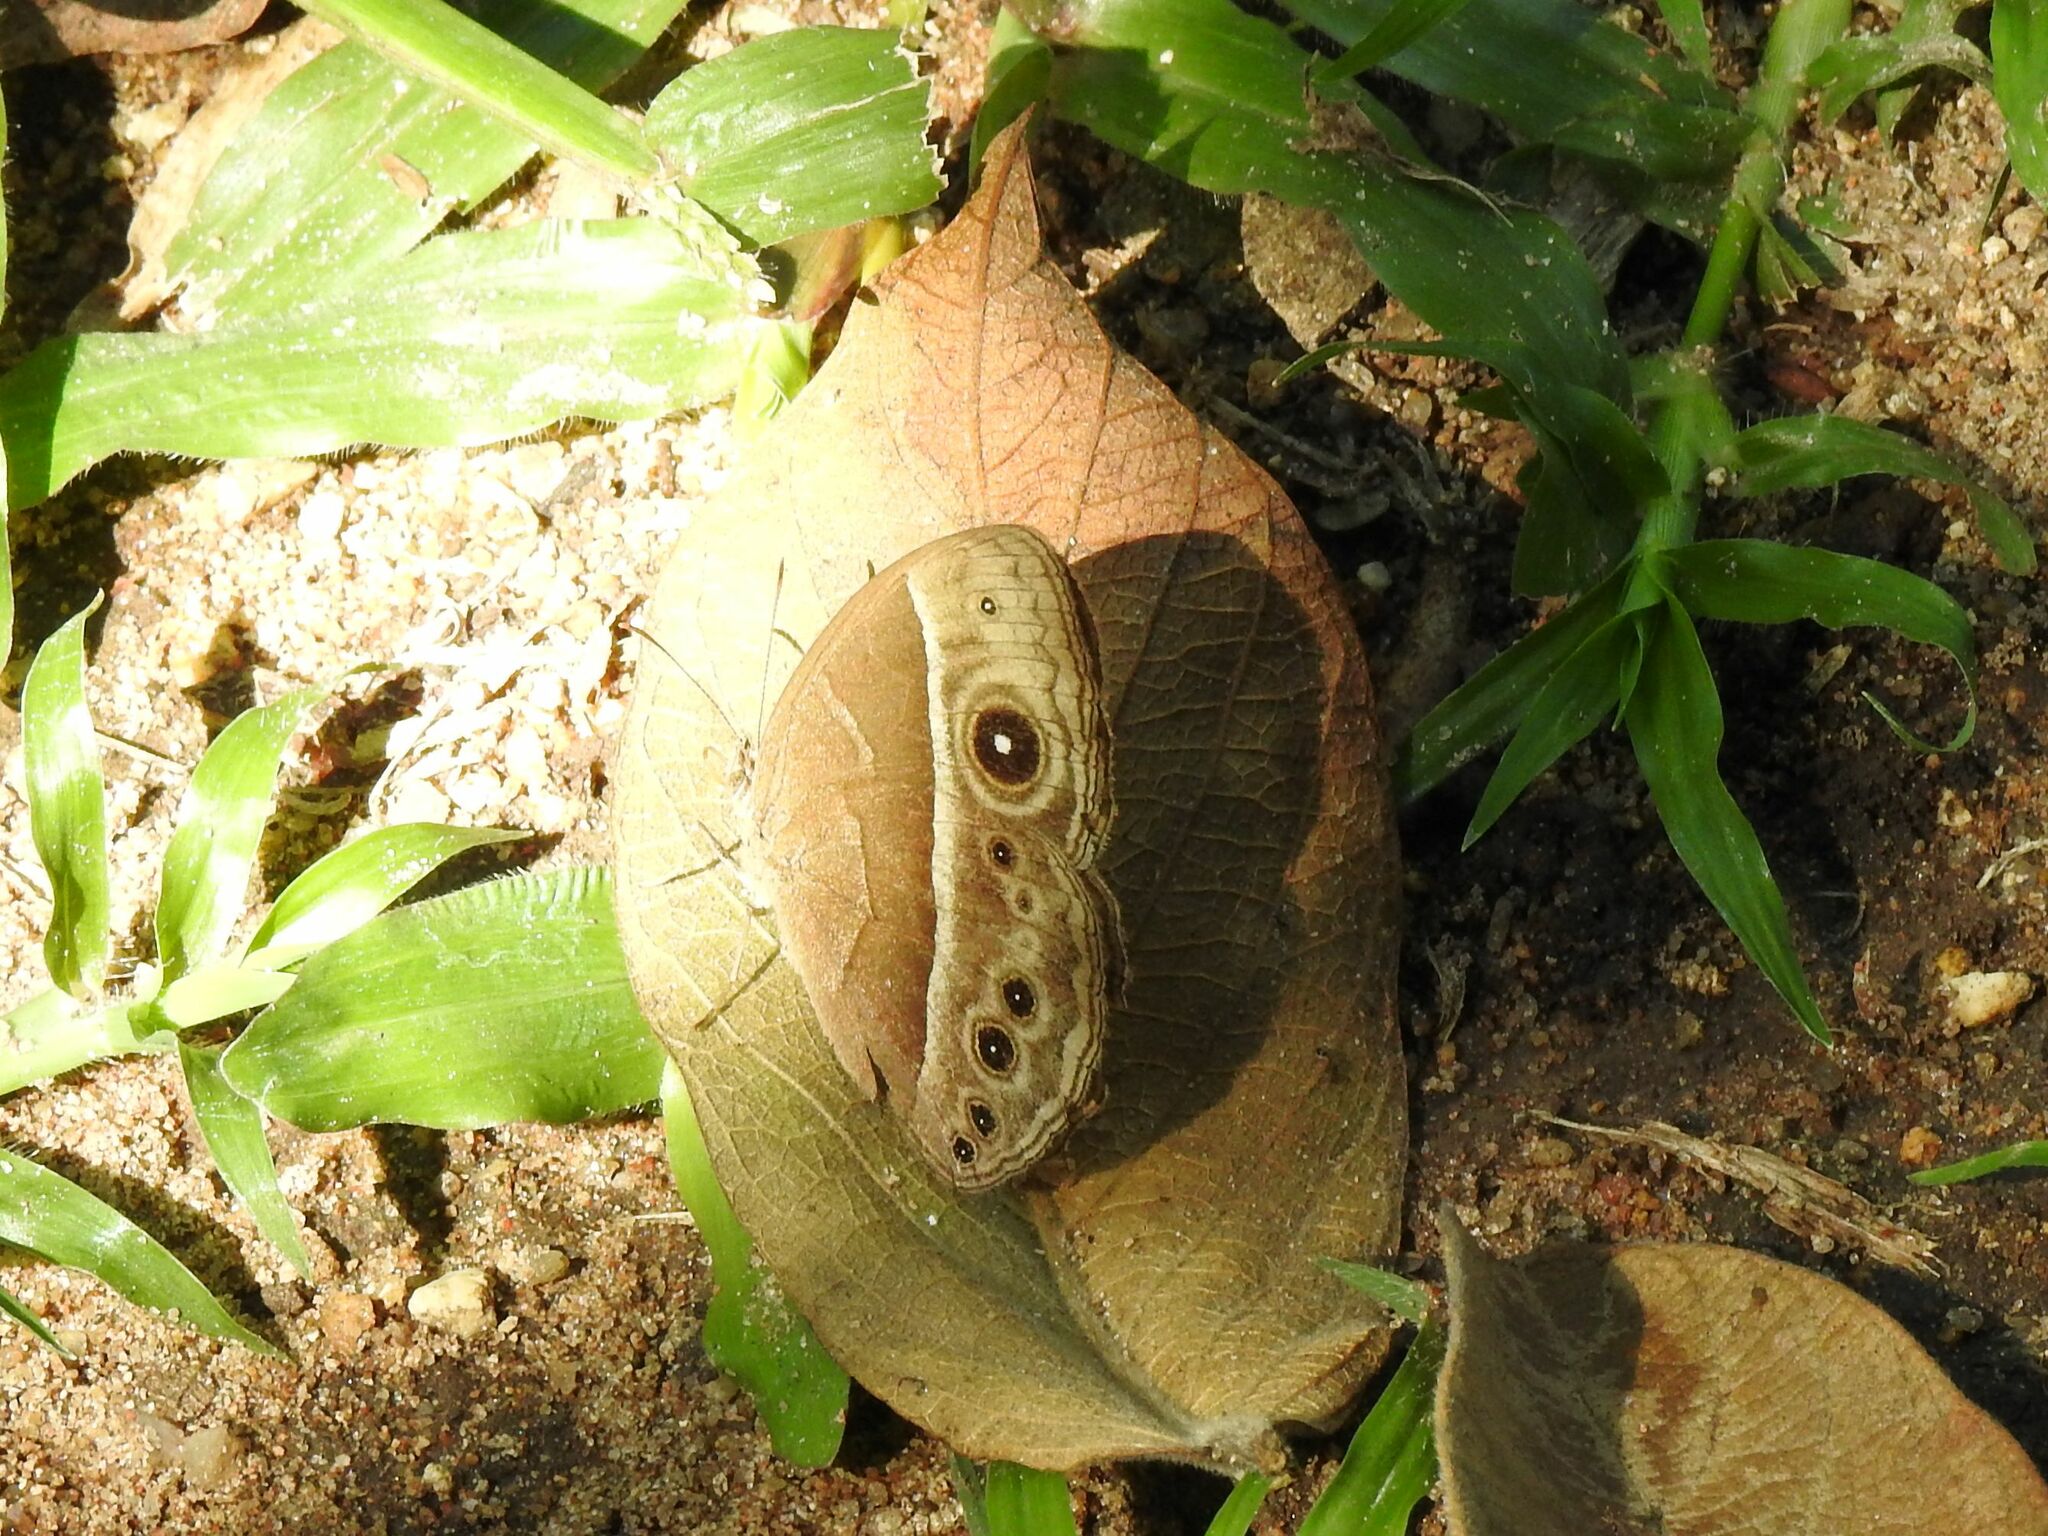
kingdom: Animalia
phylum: Arthropoda
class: Insecta
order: Lepidoptera
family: Nymphalidae
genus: Mycalesis
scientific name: Mycalesis rhacotis
